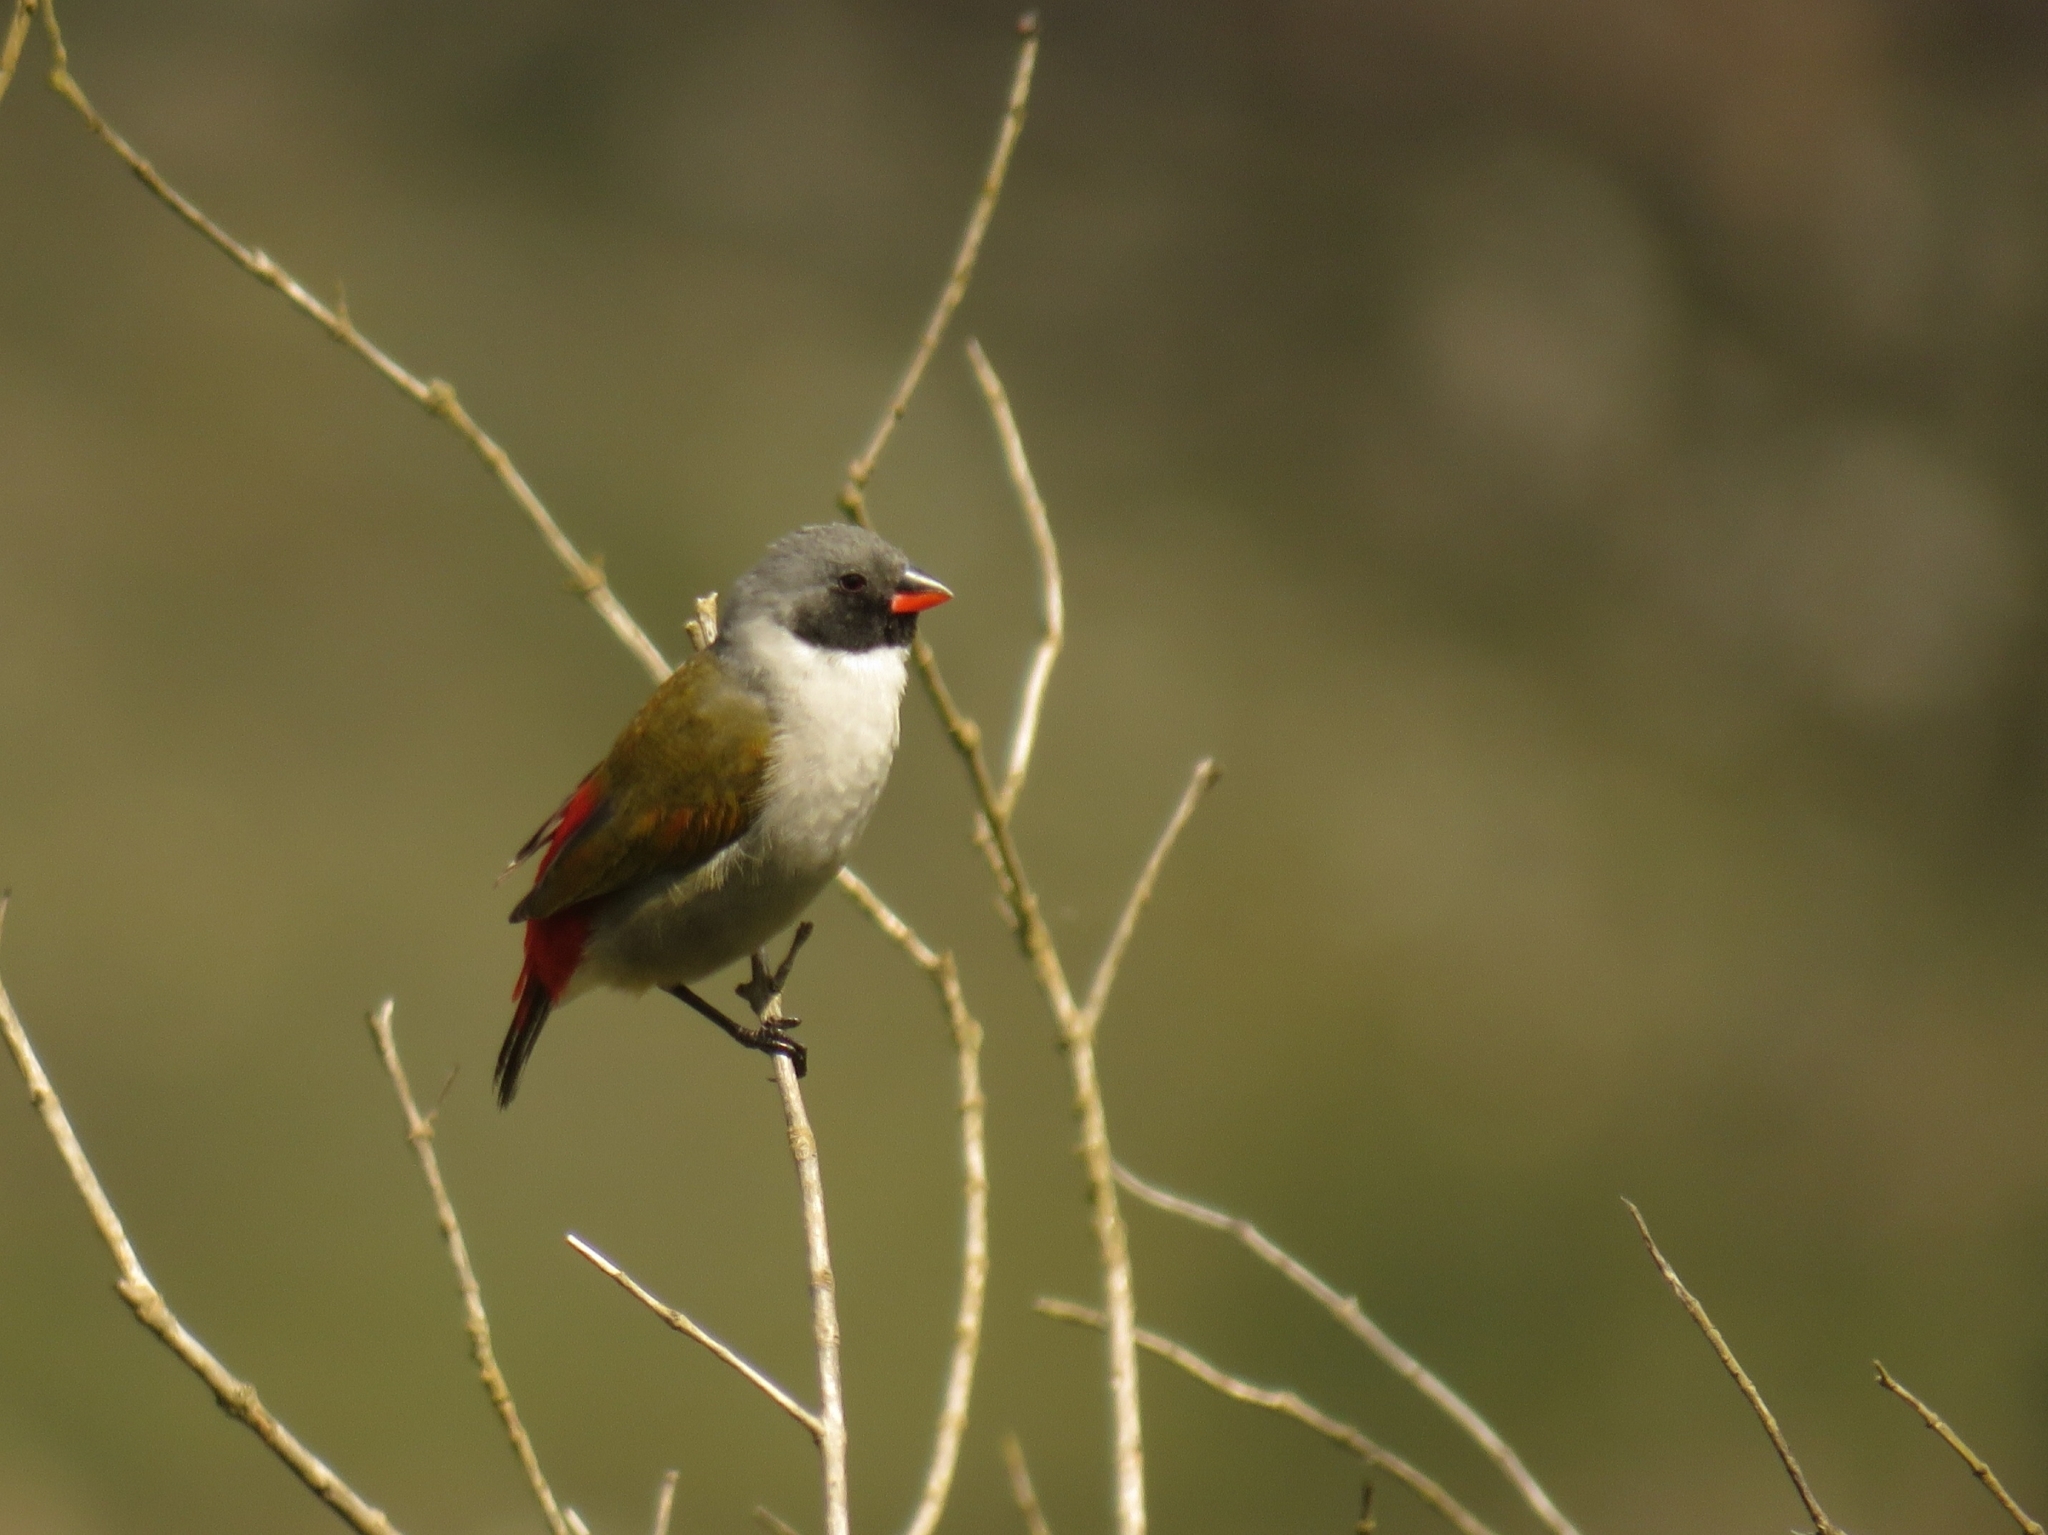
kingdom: Animalia
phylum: Chordata
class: Aves
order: Passeriformes
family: Estrildidae
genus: Coccopygia
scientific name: Coccopygia melanotis
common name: Swee waxbill
